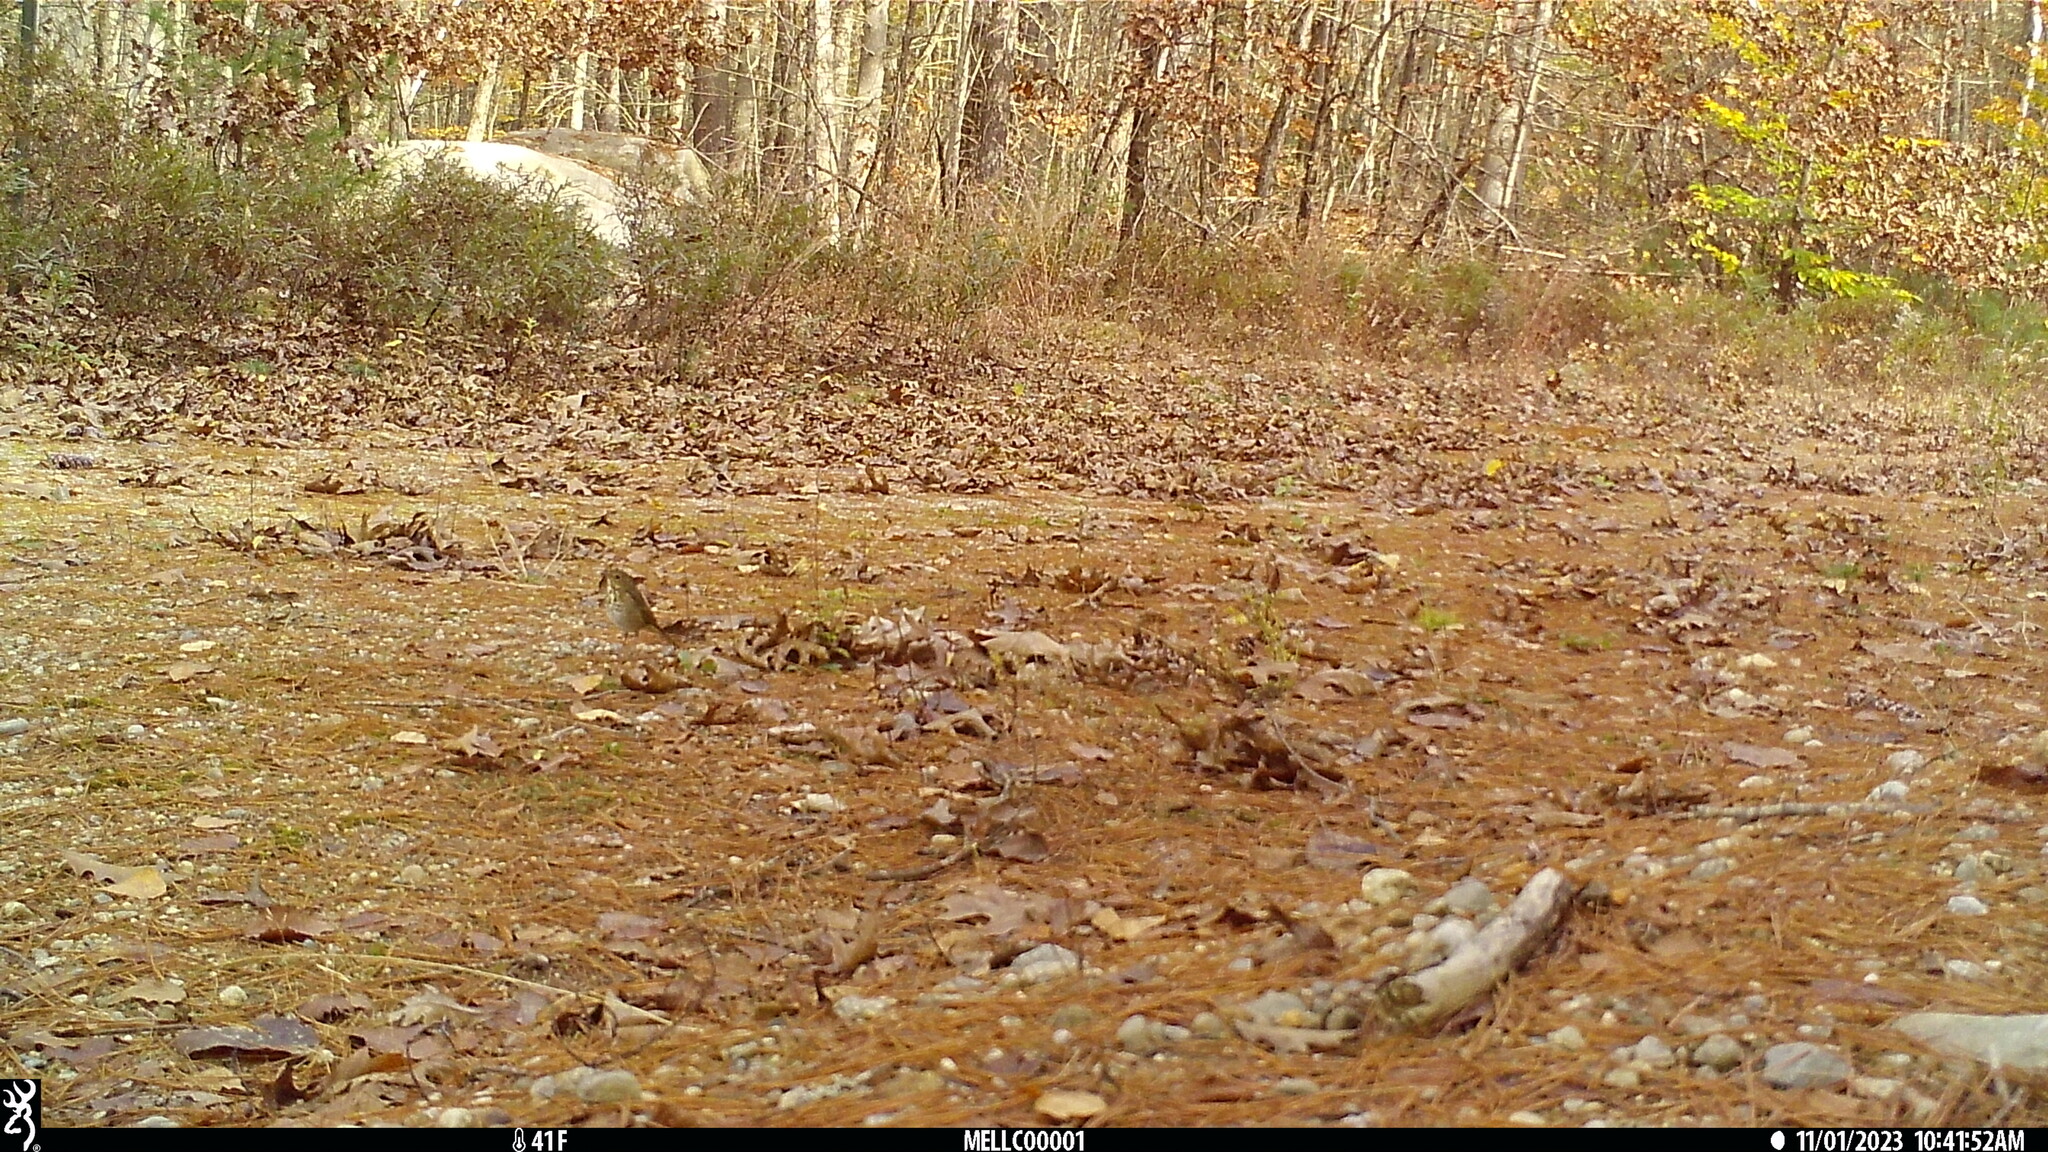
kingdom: Animalia
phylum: Chordata
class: Aves
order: Passeriformes
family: Turdidae
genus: Catharus
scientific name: Catharus guttatus
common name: Hermit thrush
